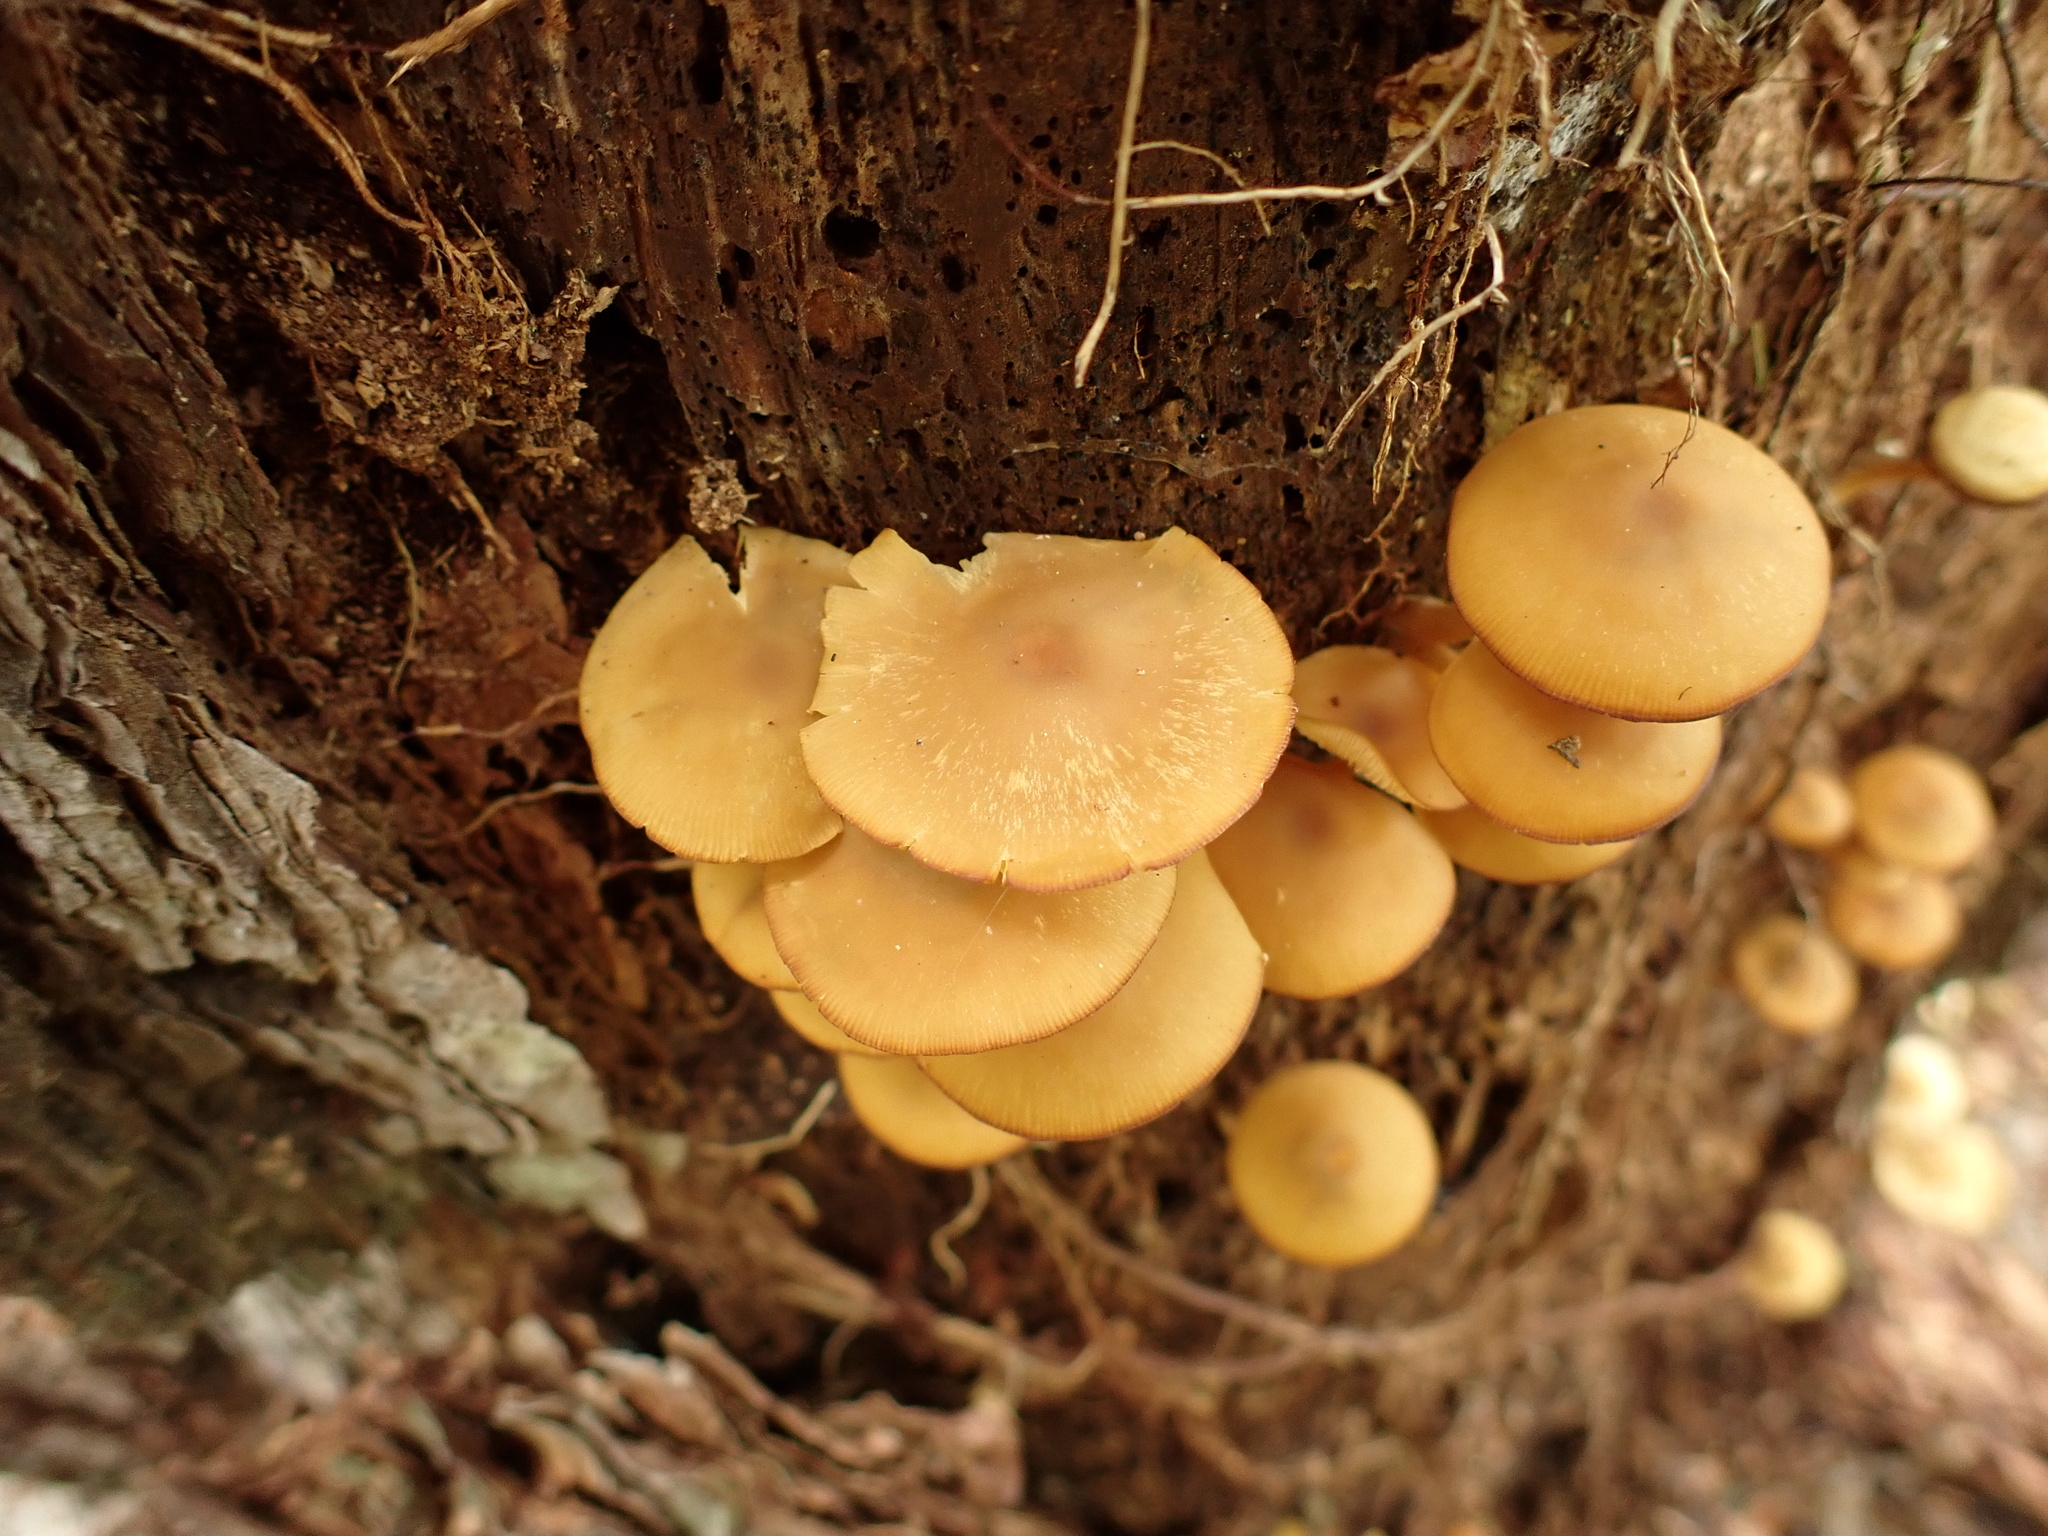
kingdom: Fungi
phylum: Basidiomycota
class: Agaricomycetes
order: Agaricales
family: Callistosporiaceae
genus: Callistosporium
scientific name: Callistosporium luteo-olivaceum
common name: Olive lute
